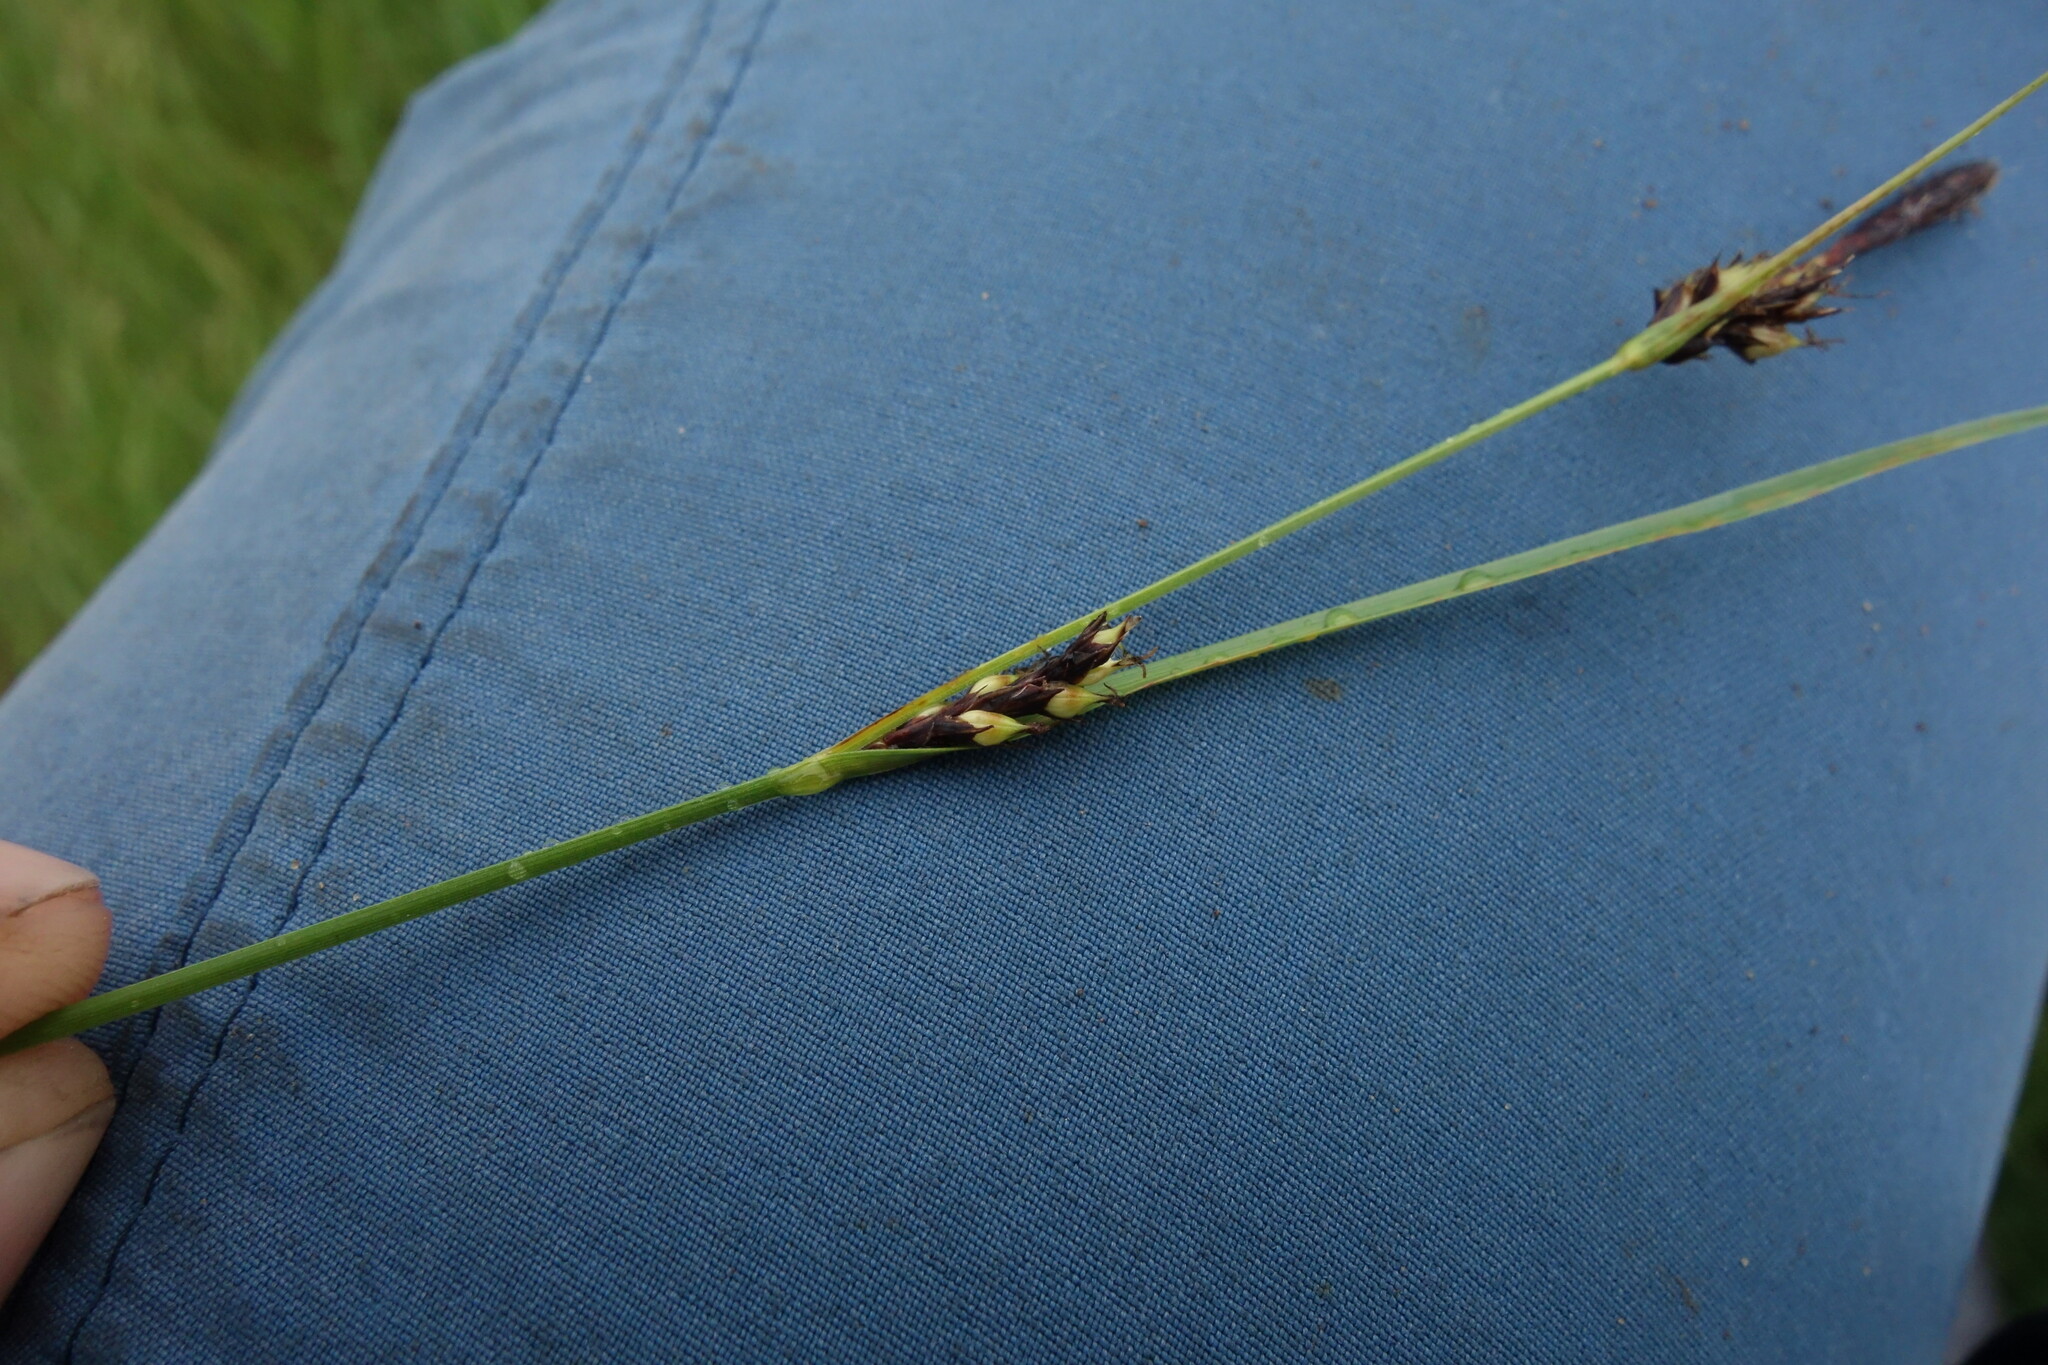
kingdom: Plantae
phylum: Tracheophyta
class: Liliopsida
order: Poales
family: Cyperaceae
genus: Carex
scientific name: Carex melanostachya
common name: Black-spiked sedge
